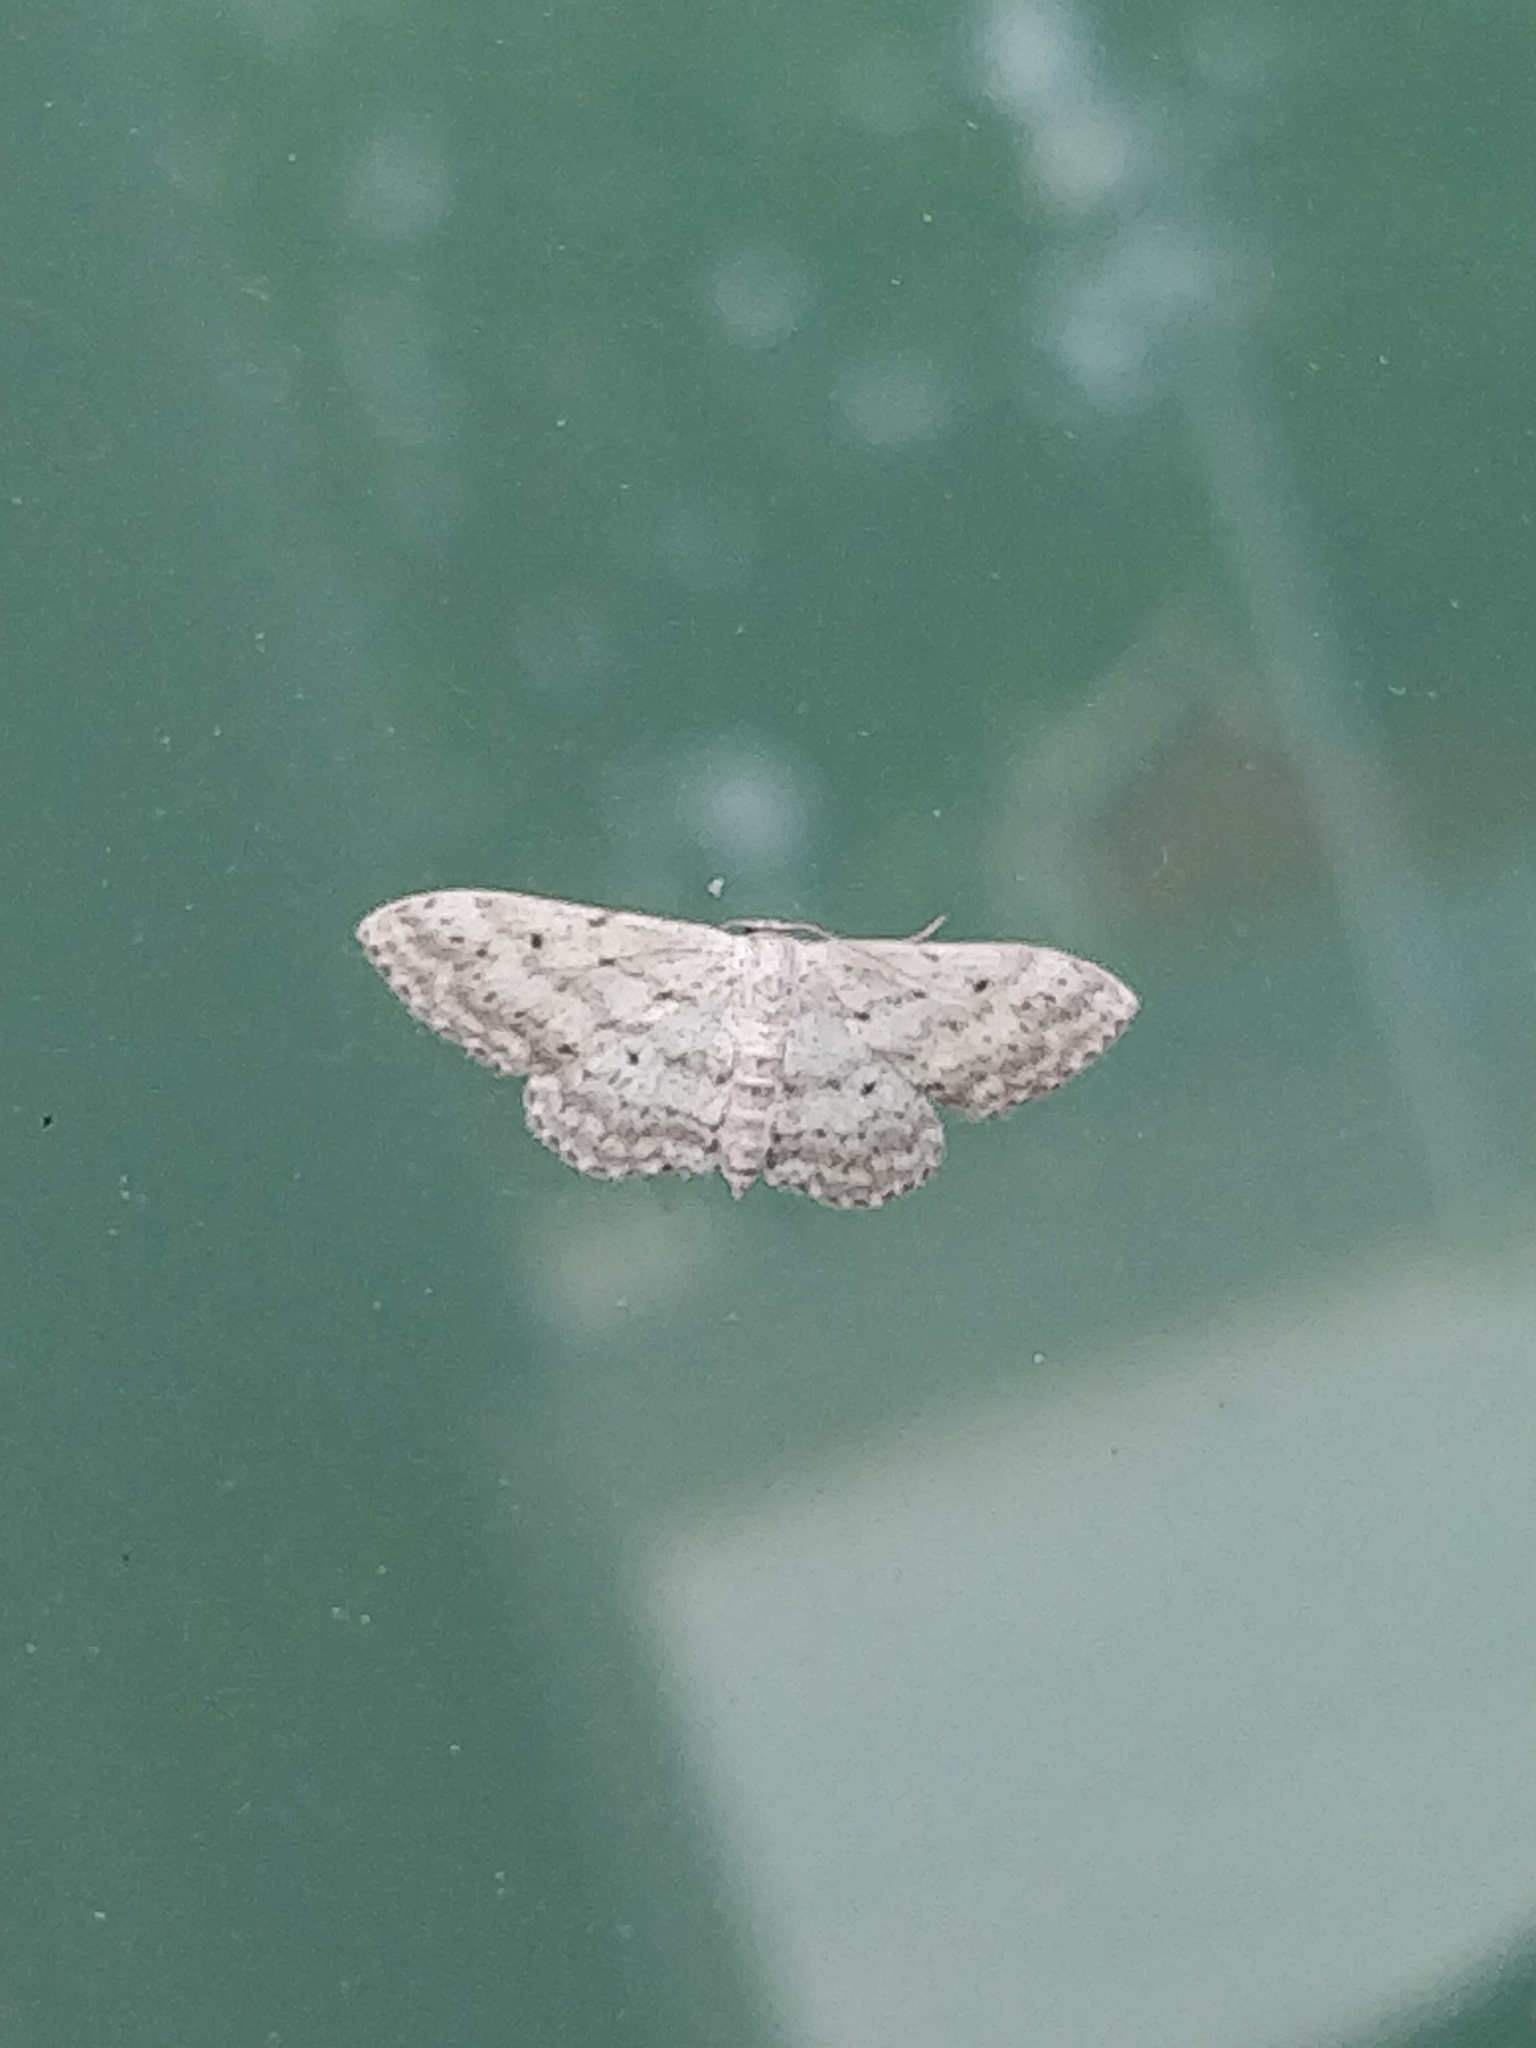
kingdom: Animalia
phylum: Arthropoda
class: Insecta
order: Lepidoptera
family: Geometridae
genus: Idaea
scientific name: Idaea seriata
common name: Small dusty wave
